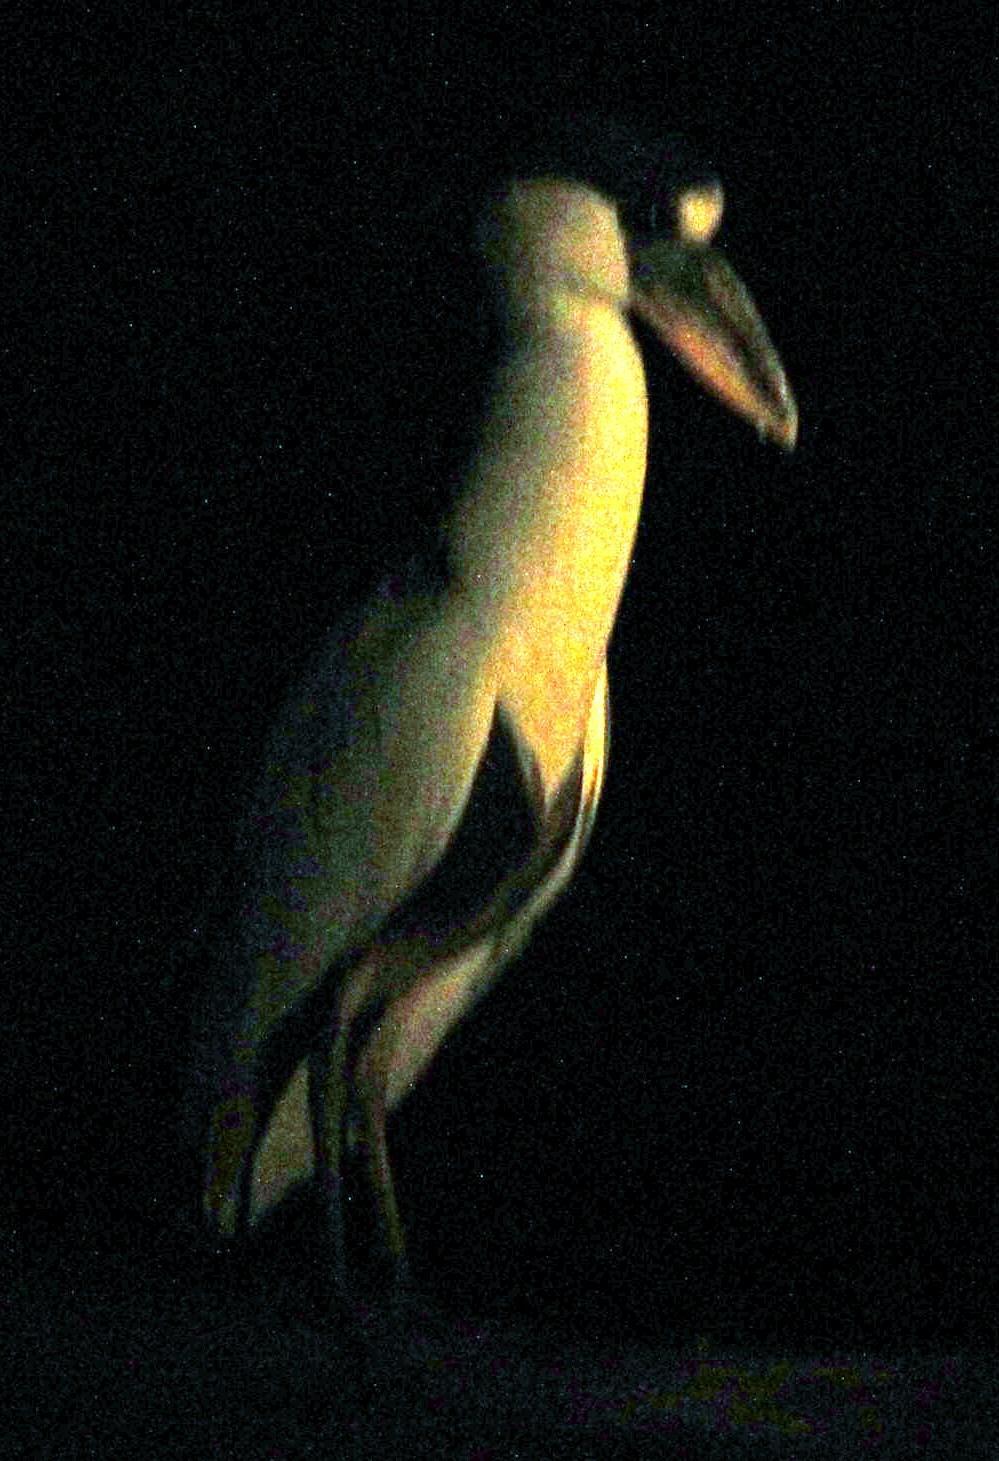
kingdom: Animalia
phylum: Chordata
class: Aves
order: Pelecaniformes
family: Ardeidae
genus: Cochlearius
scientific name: Cochlearius cochlearius
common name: Boat-billed heron
